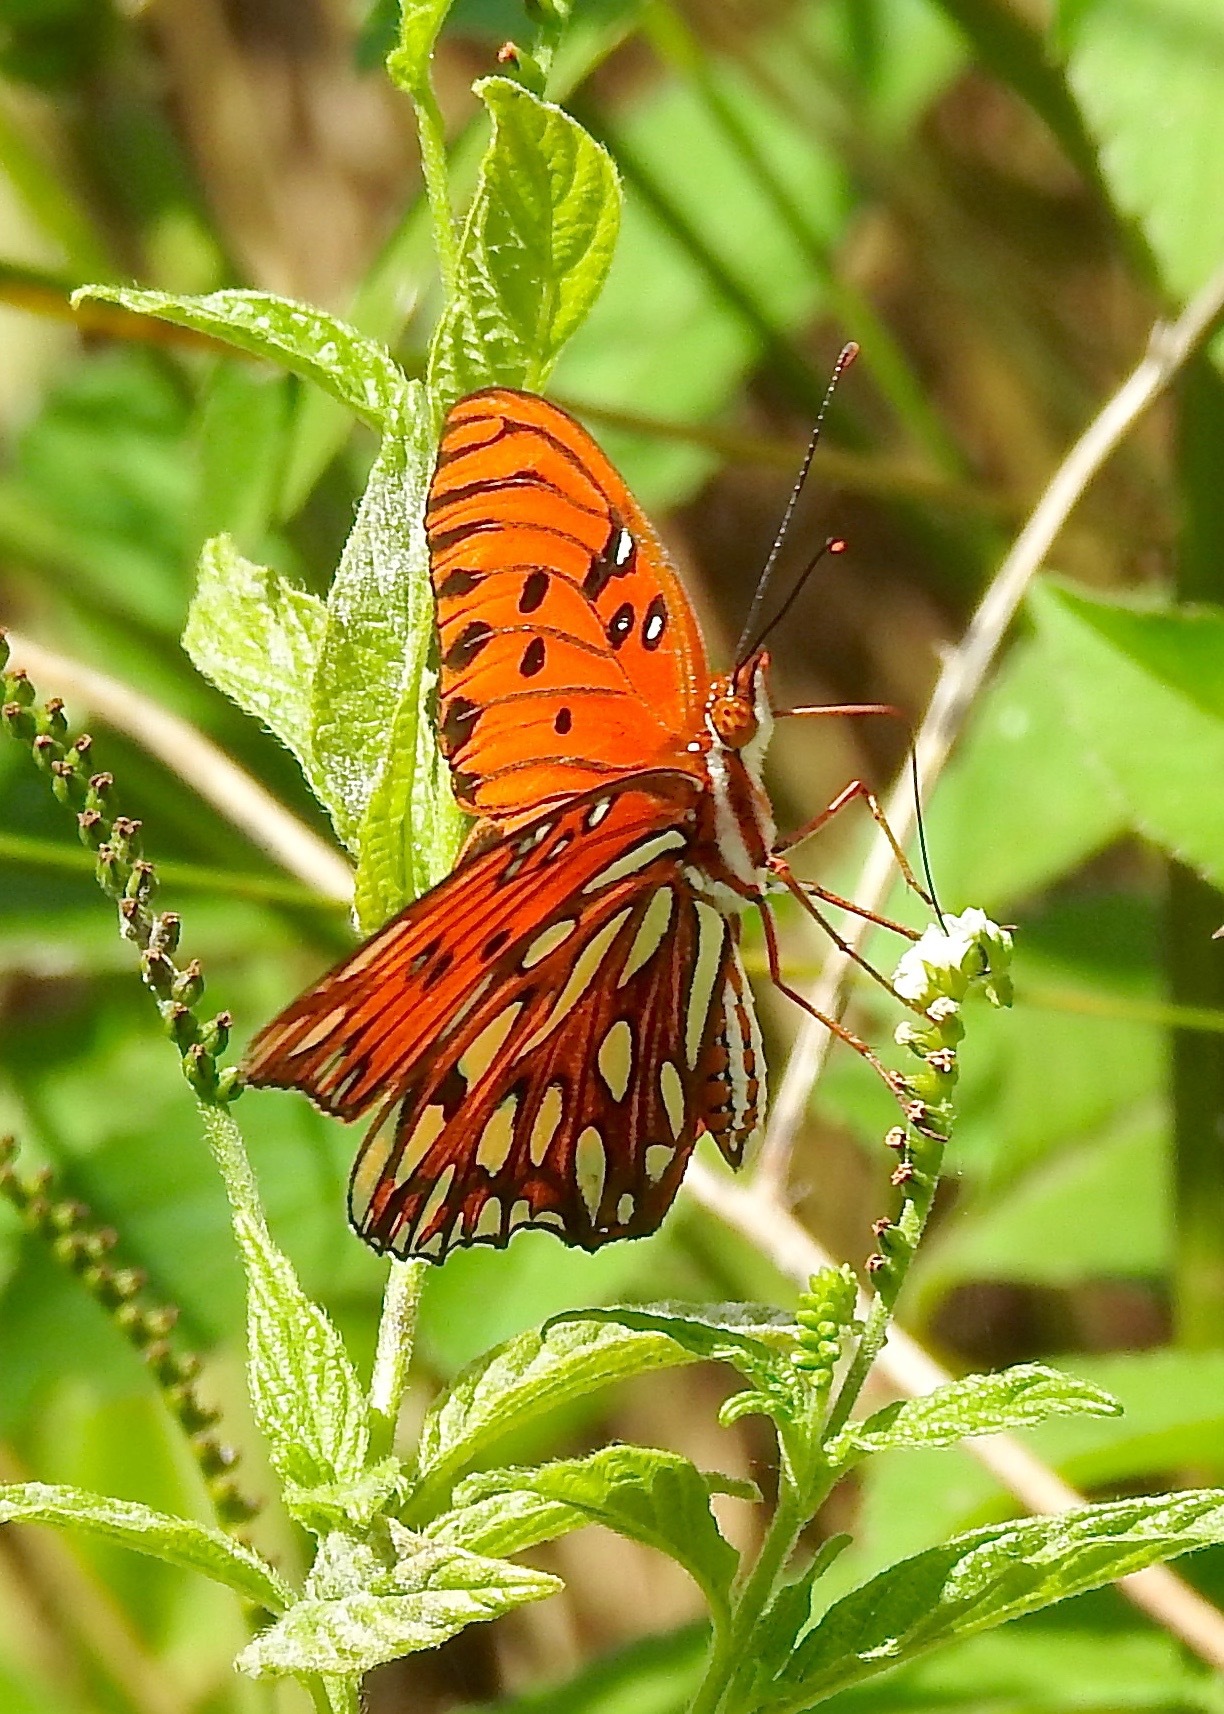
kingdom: Animalia
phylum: Arthropoda
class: Insecta
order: Lepidoptera
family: Nymphalidae
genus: Dione
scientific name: Dione vanillae
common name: Gulf fritillary
